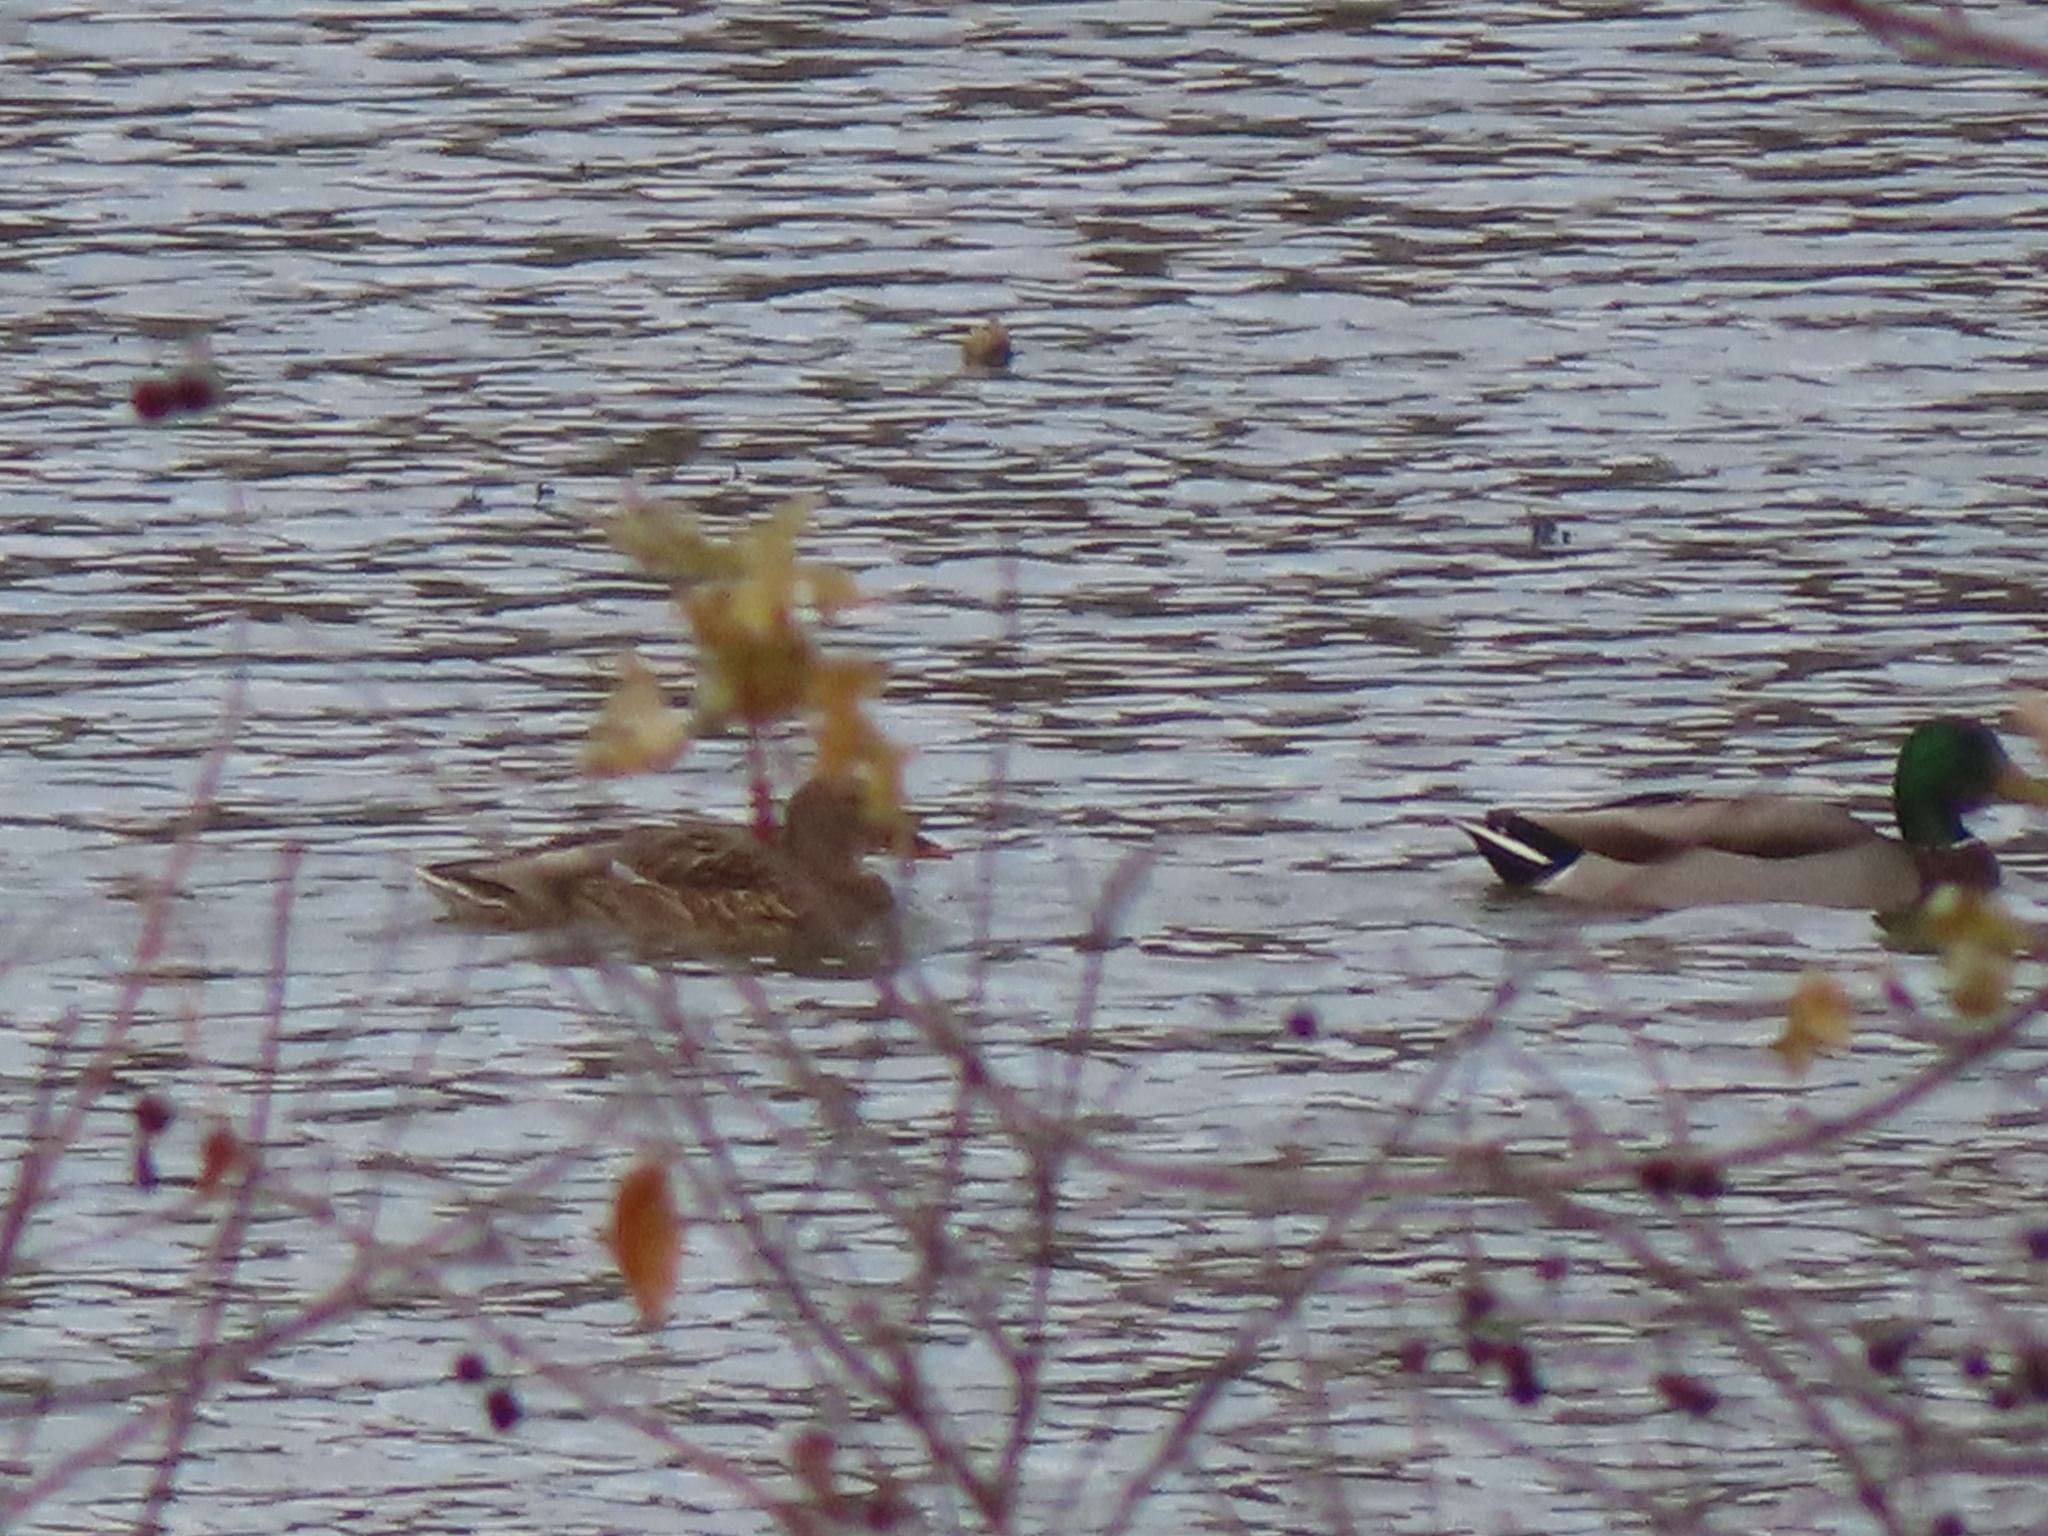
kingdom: Animalia
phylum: Chordata
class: Aves
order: Anseriformes
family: Anatidae
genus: Anas
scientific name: Anas platyrhynchos
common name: Mallard
